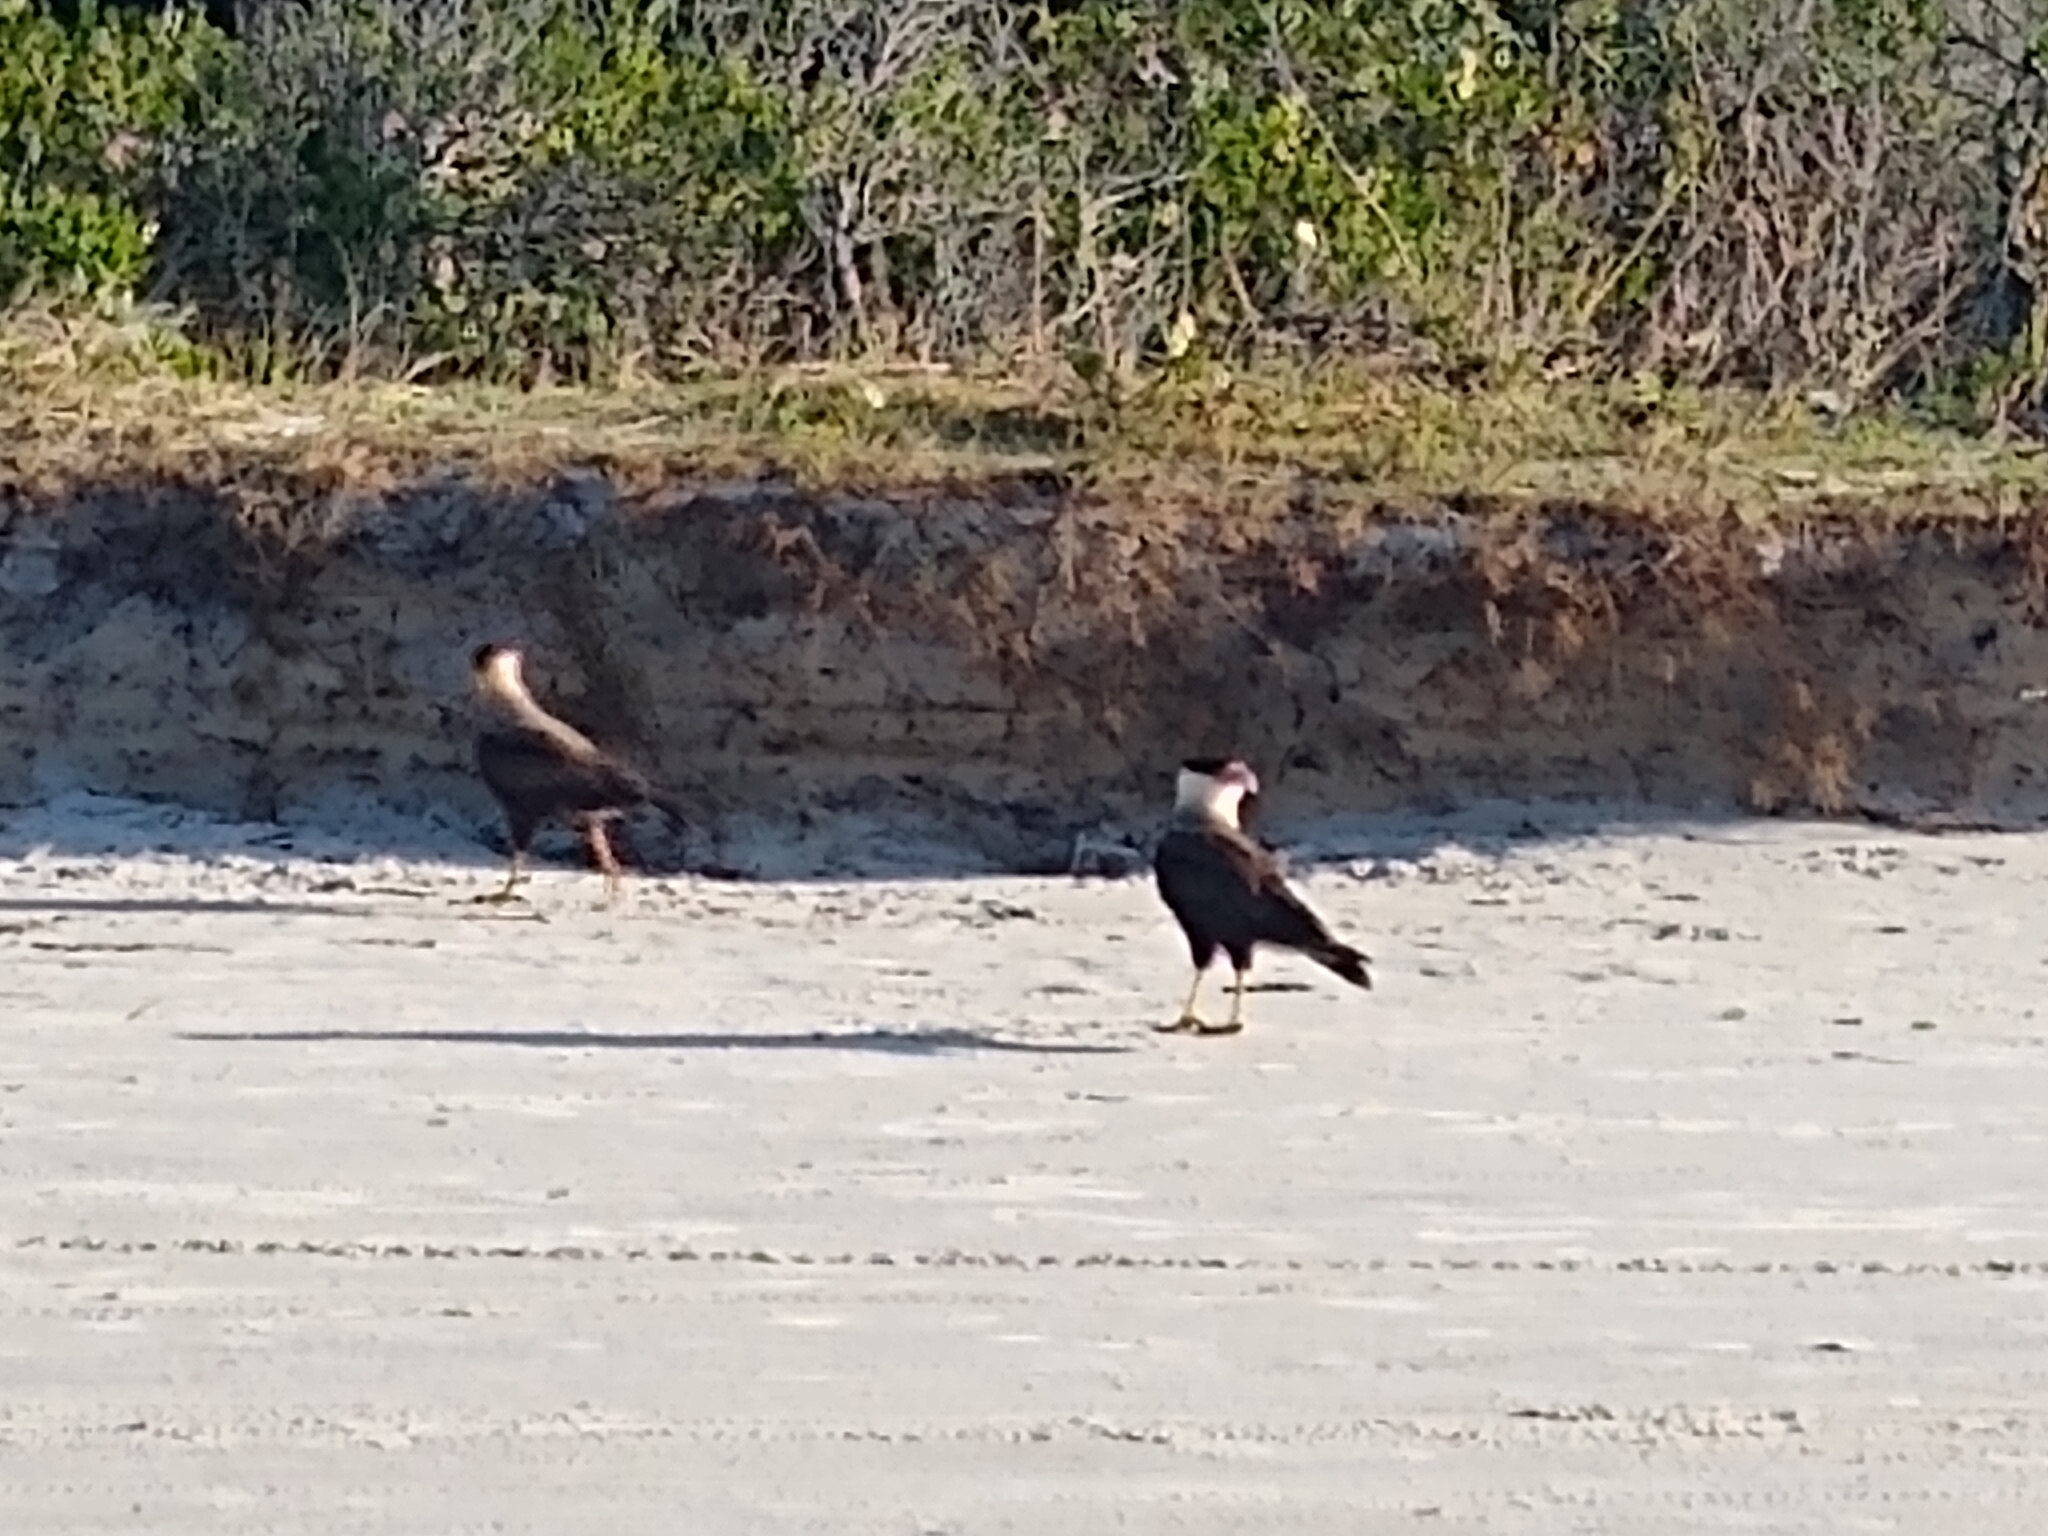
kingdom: Animalia
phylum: Chordata
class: Aves
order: Falconiformes
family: Falconidae
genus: Caracara
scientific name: Caracara plancus
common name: Southern caracara
